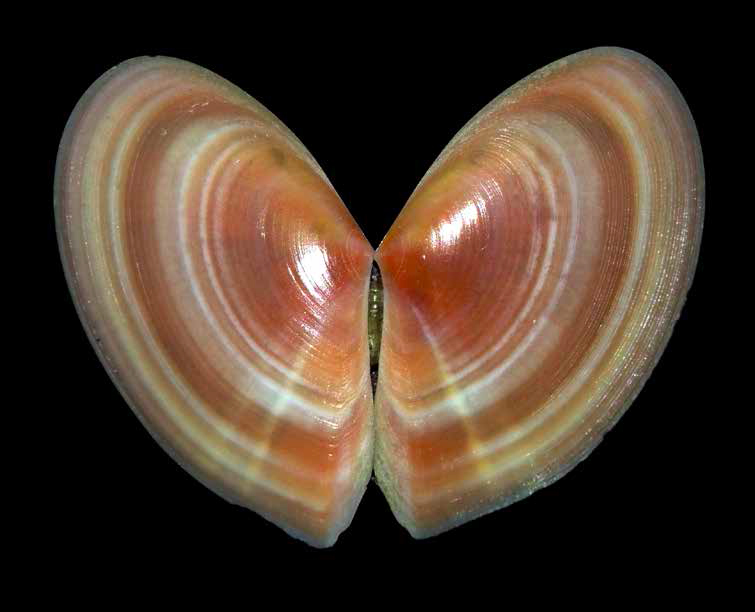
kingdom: Animalia
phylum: Mollusca
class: Bivalvia
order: Cardiida
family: Tellinidae
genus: Bosemprella
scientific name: Bosemprella incarnata
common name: Red tellin
